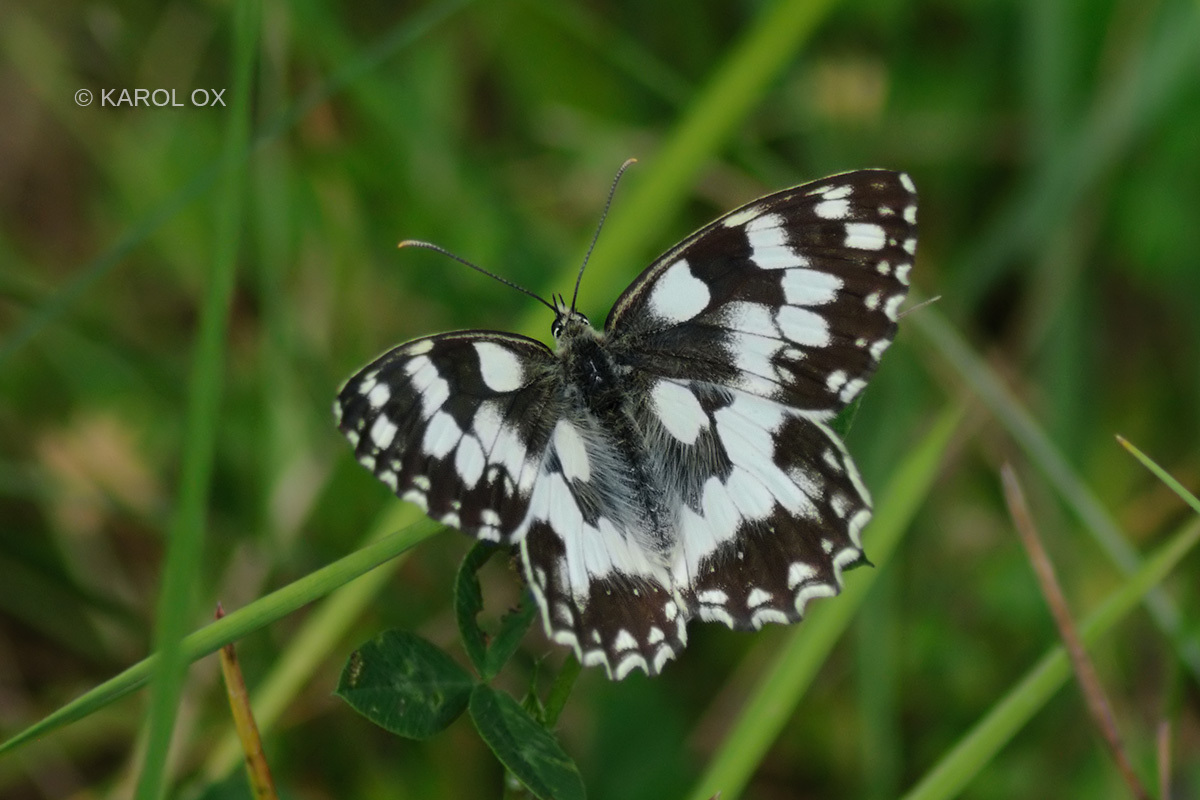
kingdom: Animalia
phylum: Arthropoda
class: Insecta
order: Lepidoptera
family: Nymphalidae
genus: Melanargia
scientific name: Melanargia galathea
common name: Marbled white
